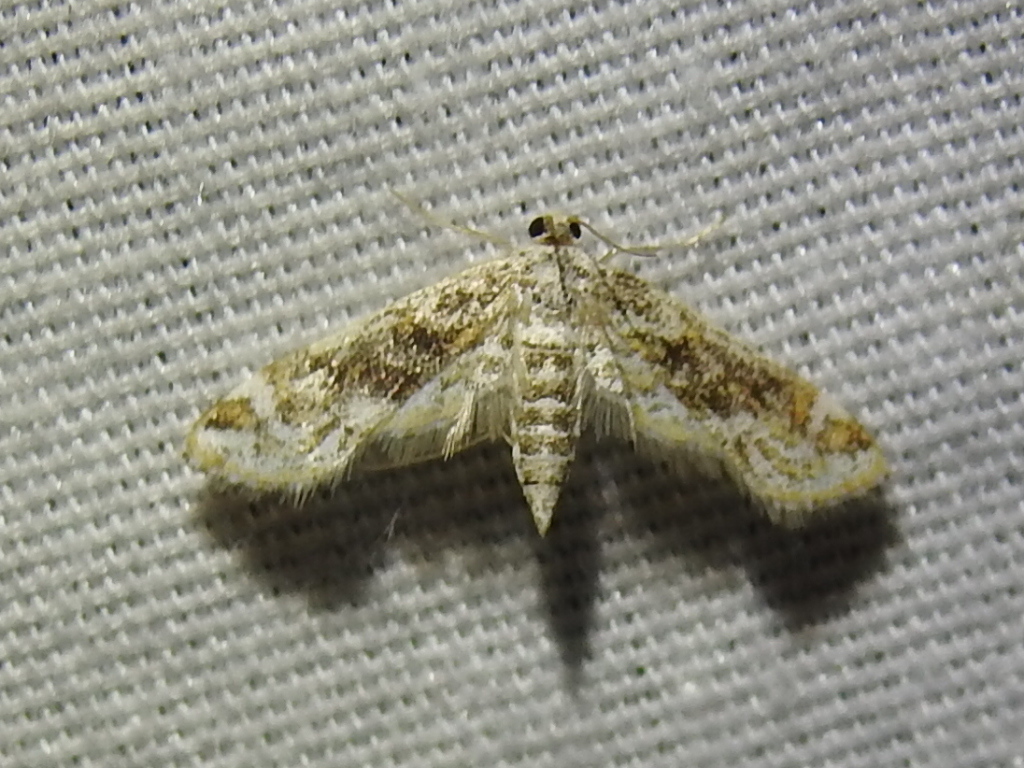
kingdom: Animalia
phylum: Arthropoda
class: Insecta
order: Lepidoptera
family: Crambidae
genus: Parapoynx
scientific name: Parapoynx diminutalis
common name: Hydrilla leafcutter
